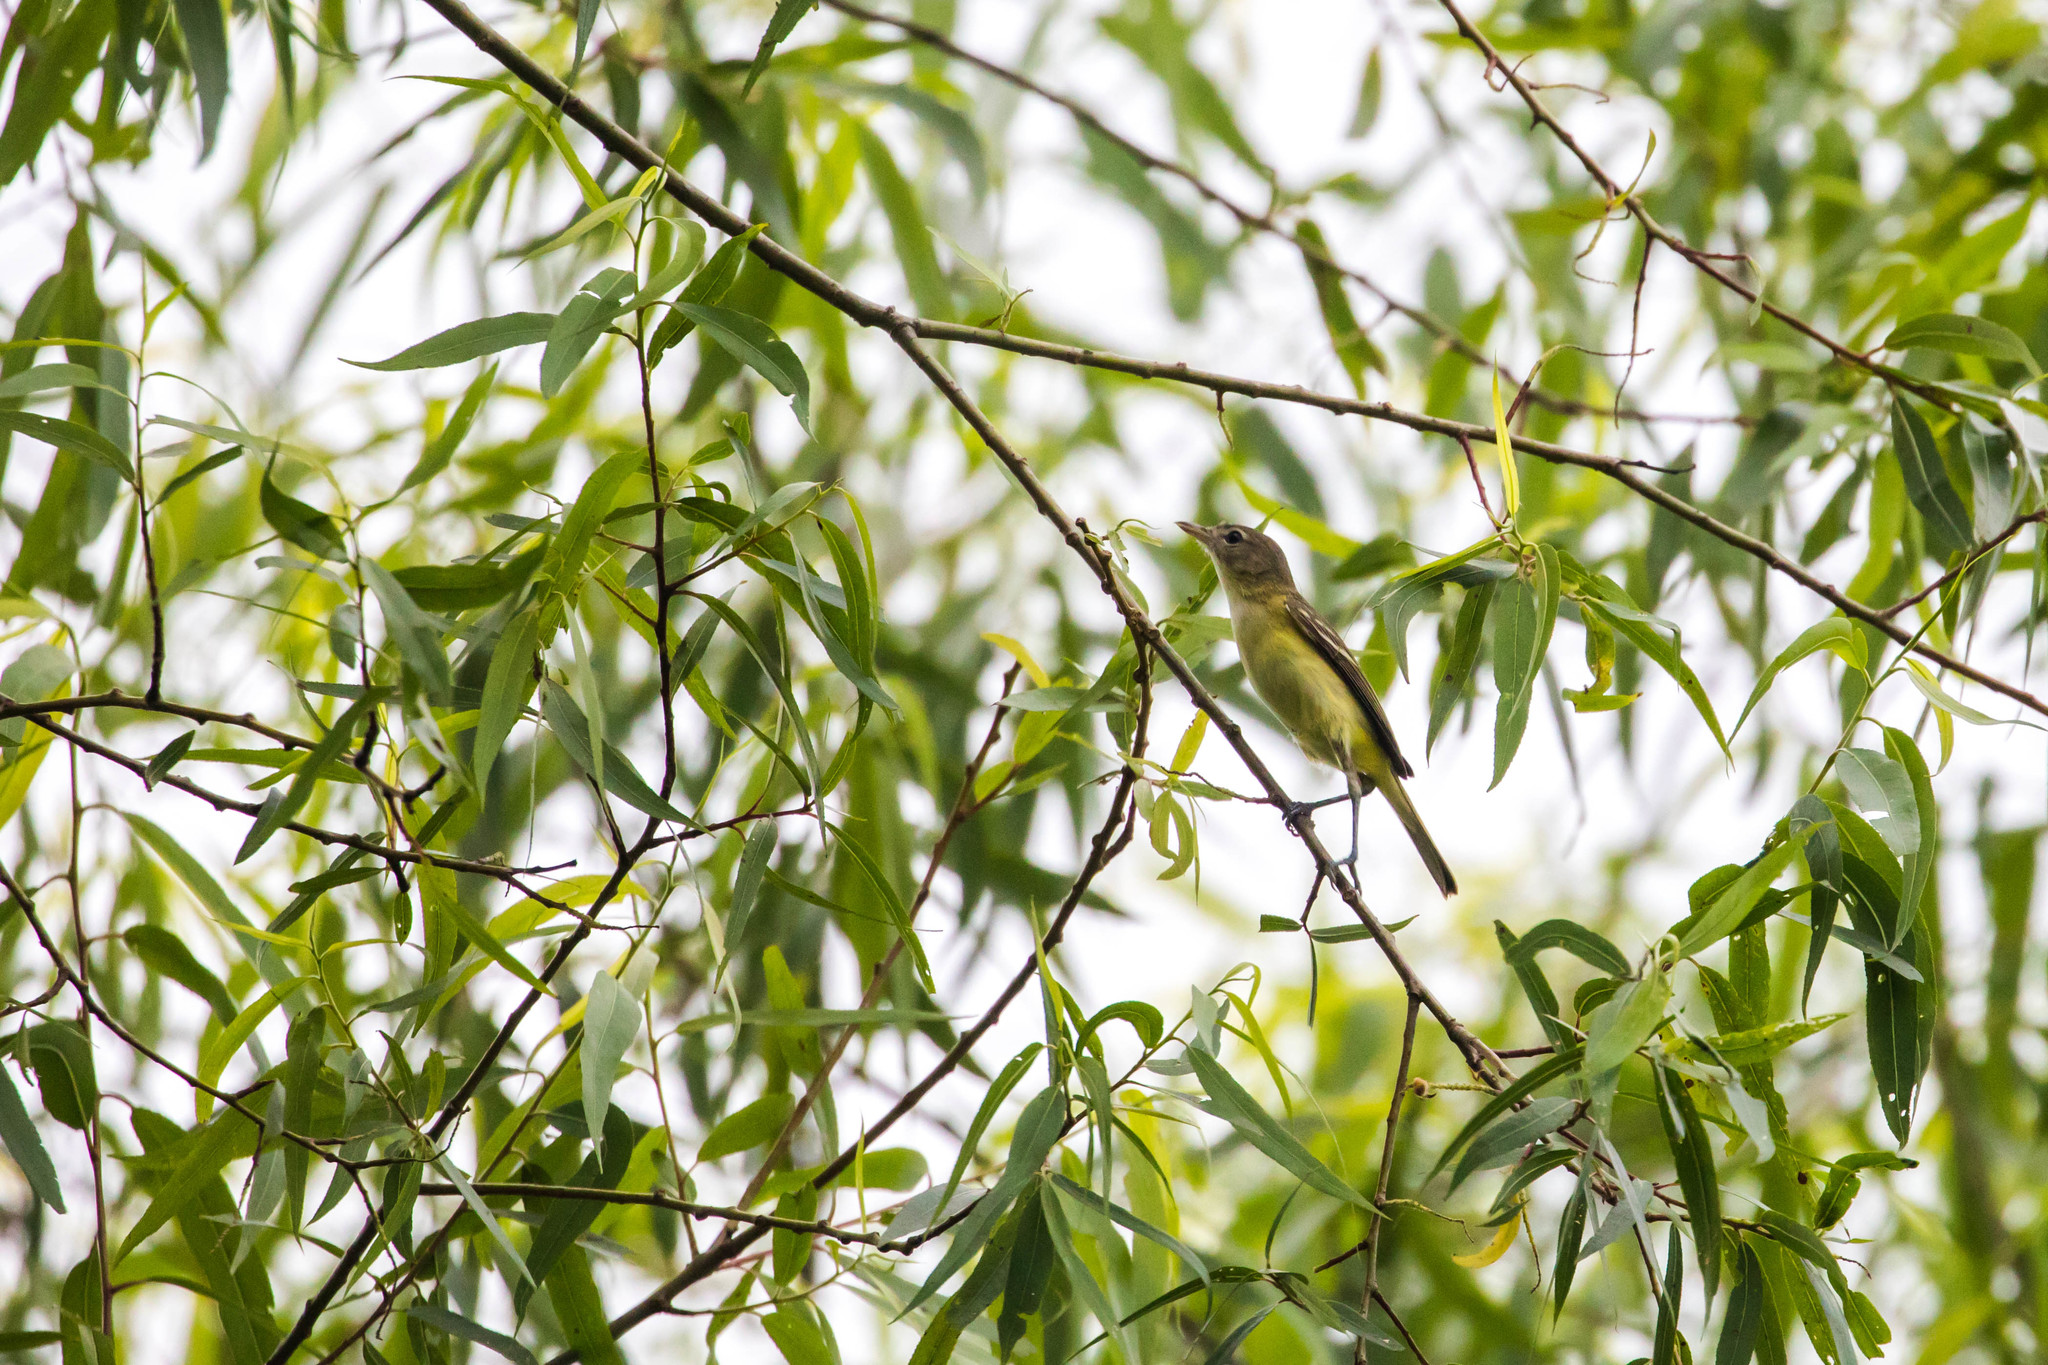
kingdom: Animalia
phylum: Chordata
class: Aves
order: Passeriformes
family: Vireonidae
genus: Vireo
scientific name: Vireo bellii
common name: Bell's vireo
